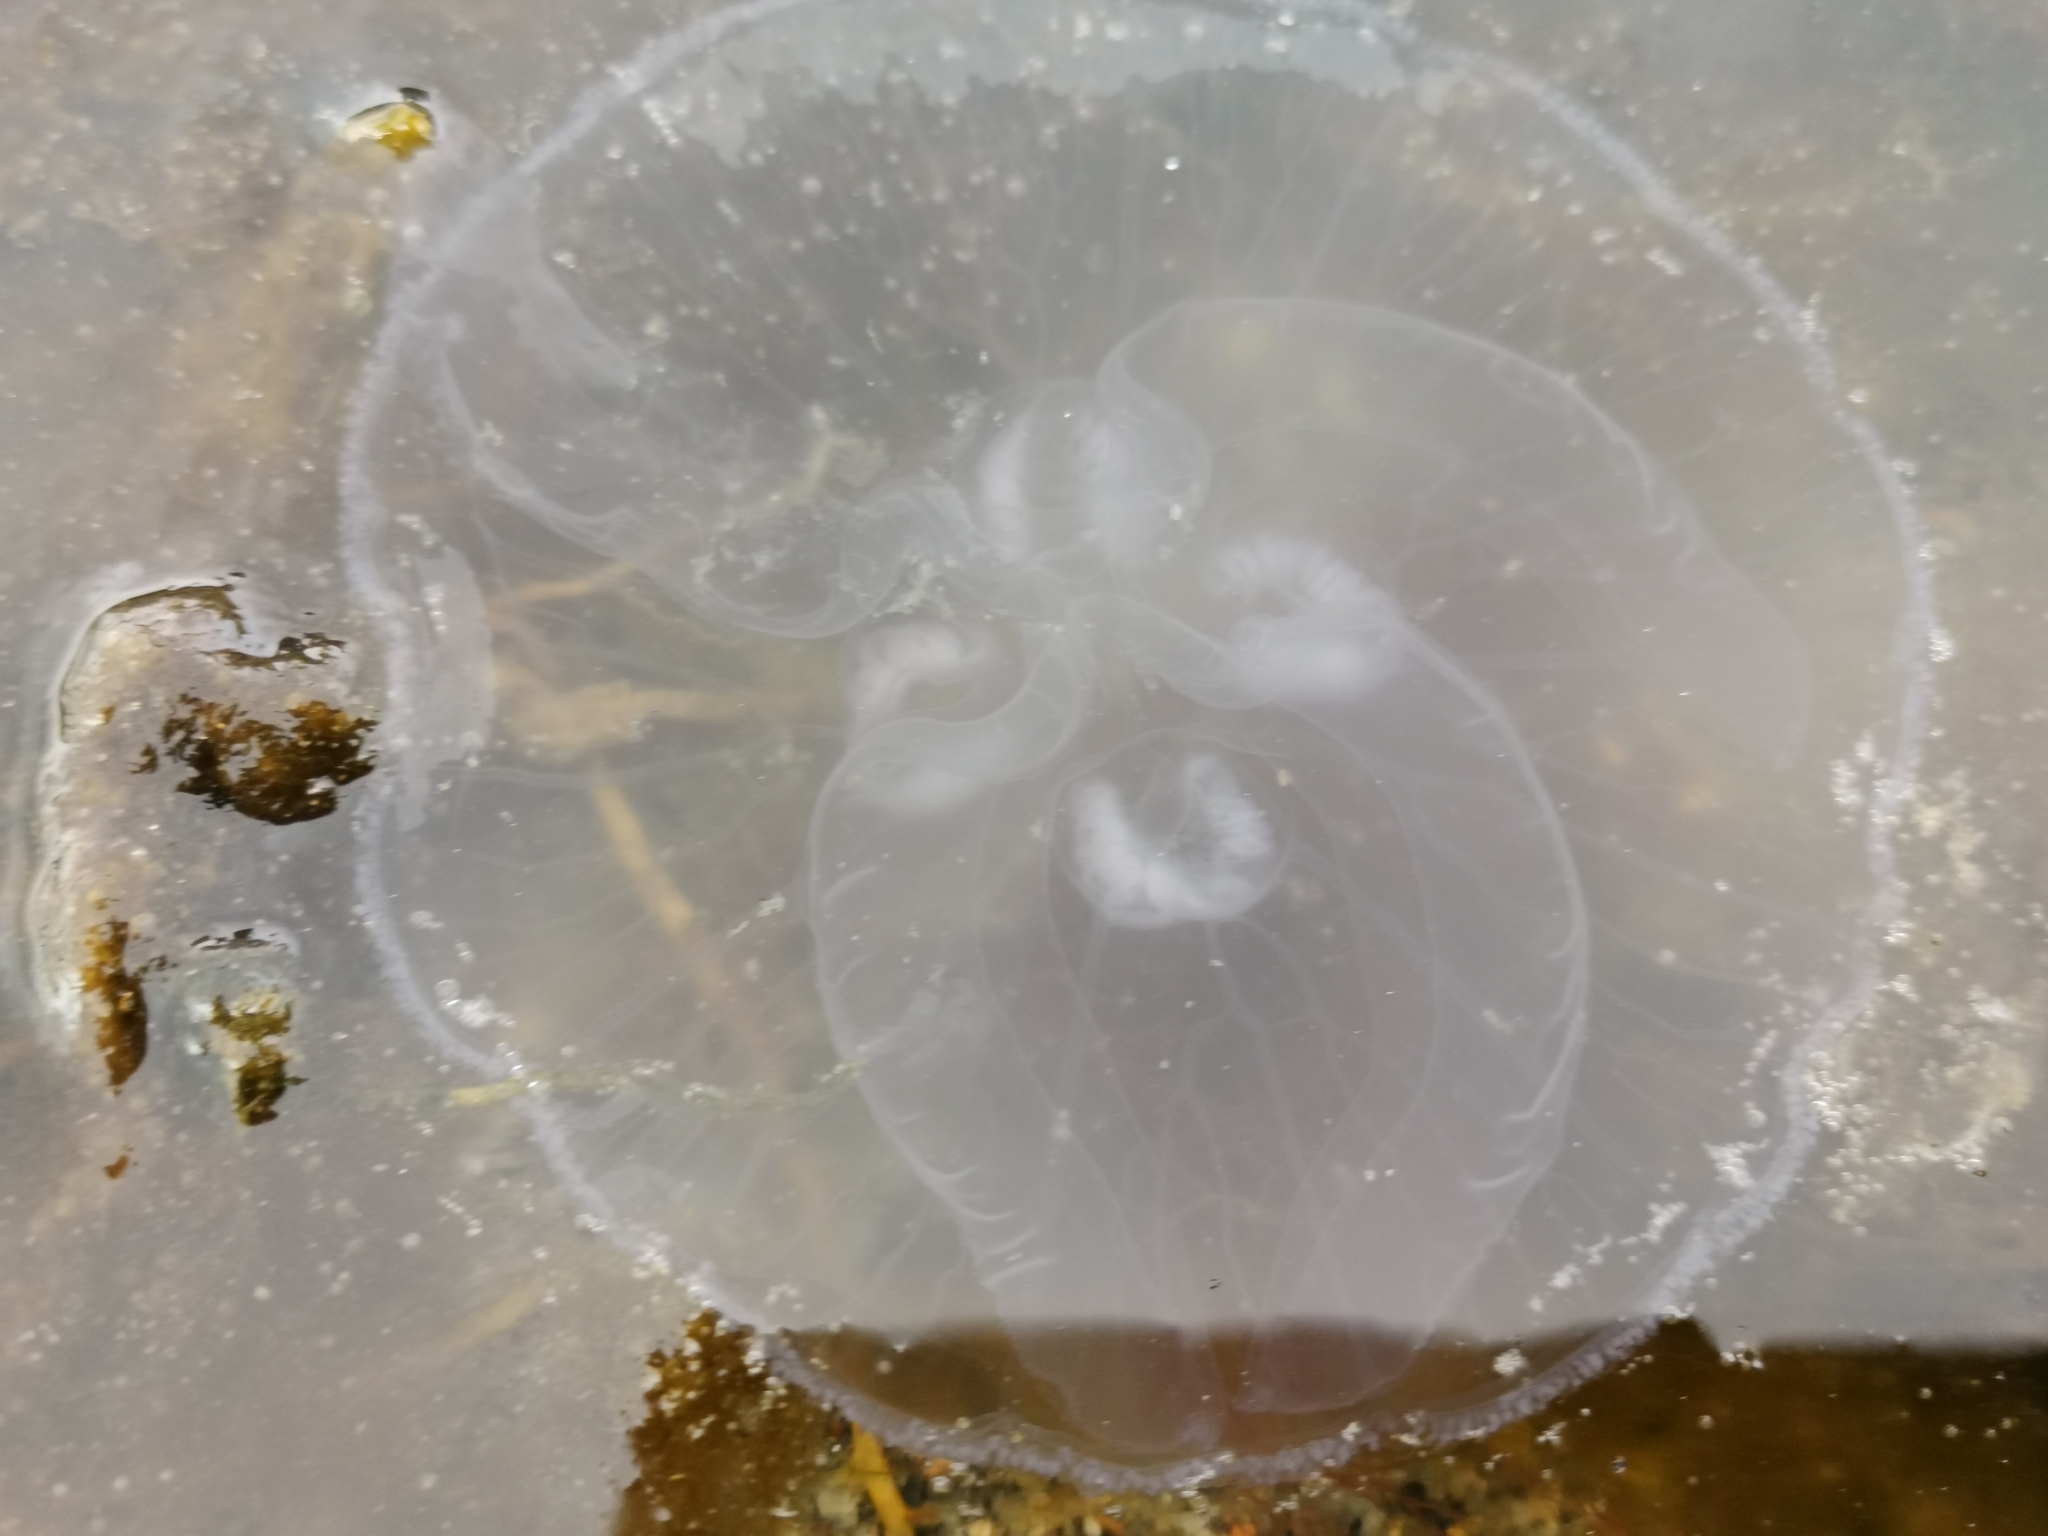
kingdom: Animalia
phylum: Cnidaria
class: Scyphozoa
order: Semaeostomeae
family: Ulmaridae
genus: Aurelia
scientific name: Aurelia aurita
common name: Moon jellyfish
